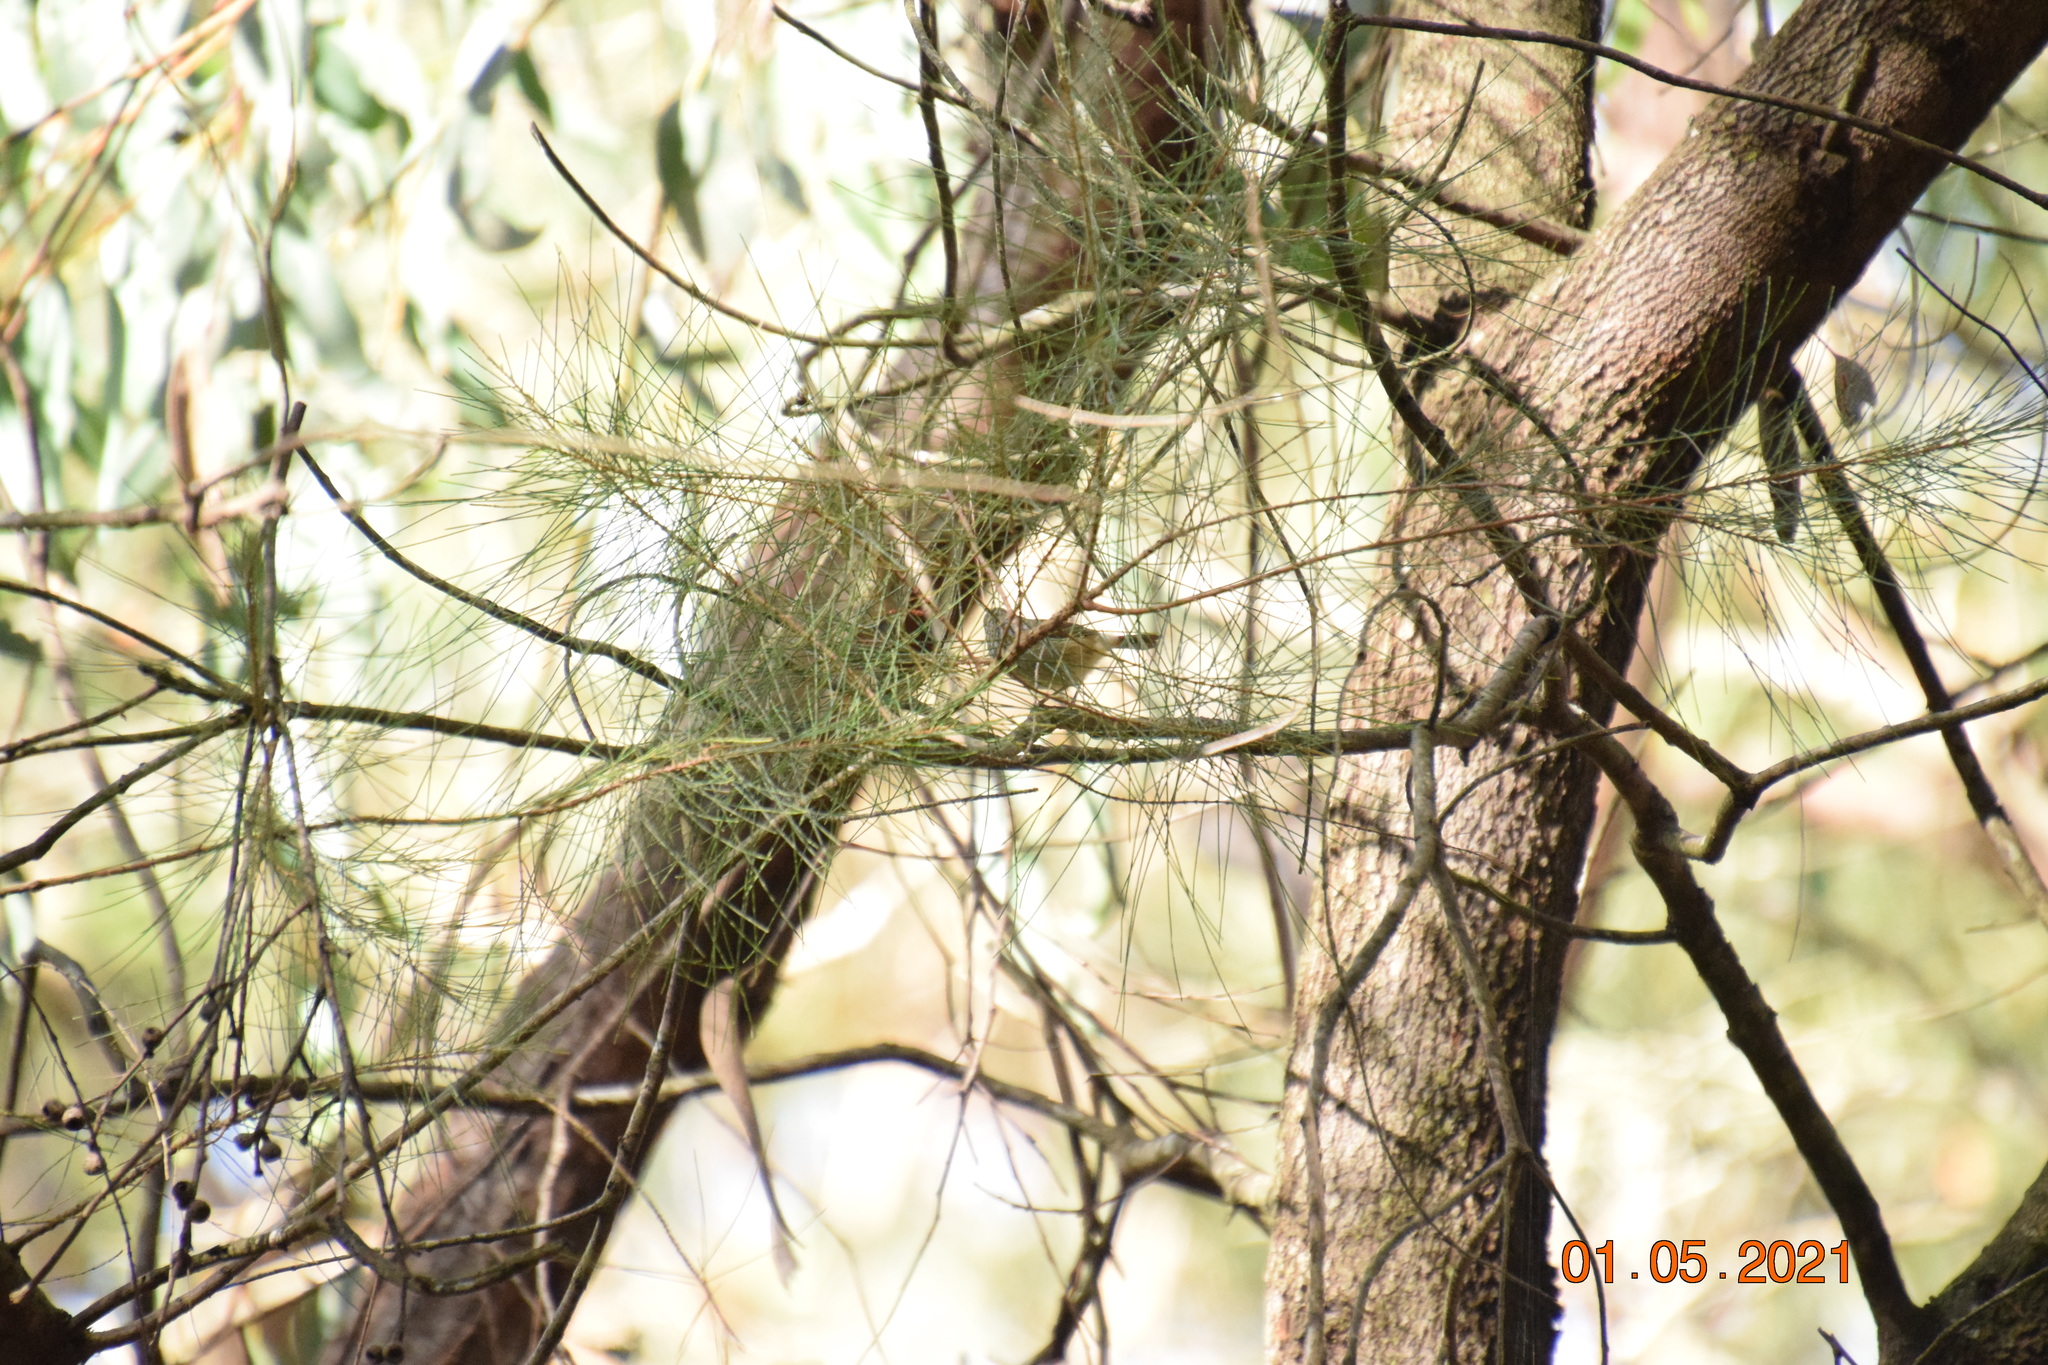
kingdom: Animalia
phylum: Chordata
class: Aves
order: Passeriformes
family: Acanthizidae
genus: Acanthiza
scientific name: Acanthiza pusilla
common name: Brown thornbill
